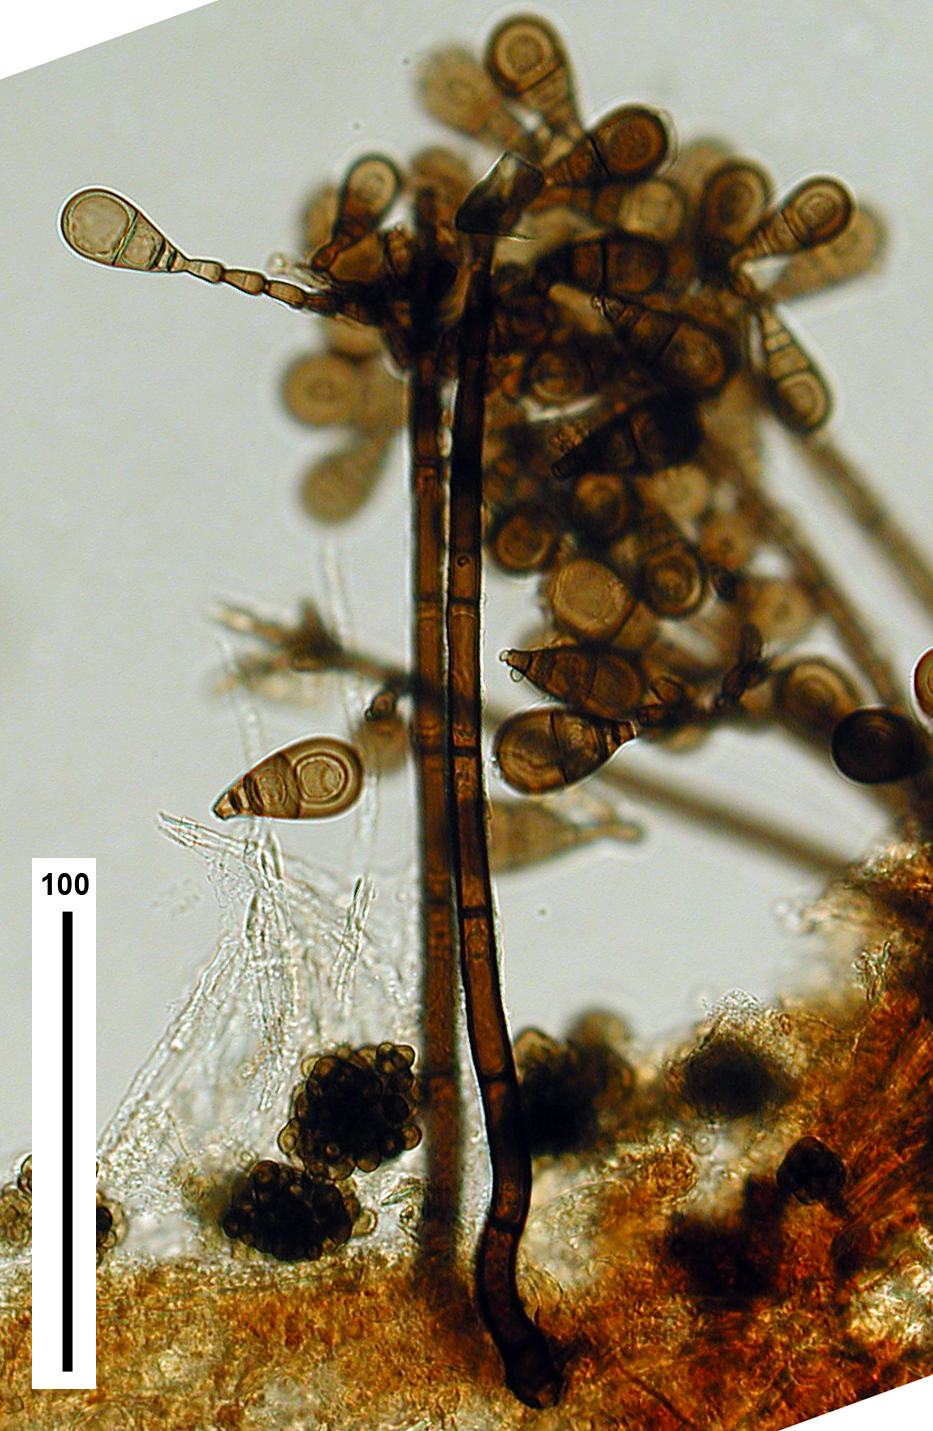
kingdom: Fungi
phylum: Ascomycota
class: Sordariomycetes
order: Sordariales
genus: Brachysporiella
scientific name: Brachysporiella pulchra
